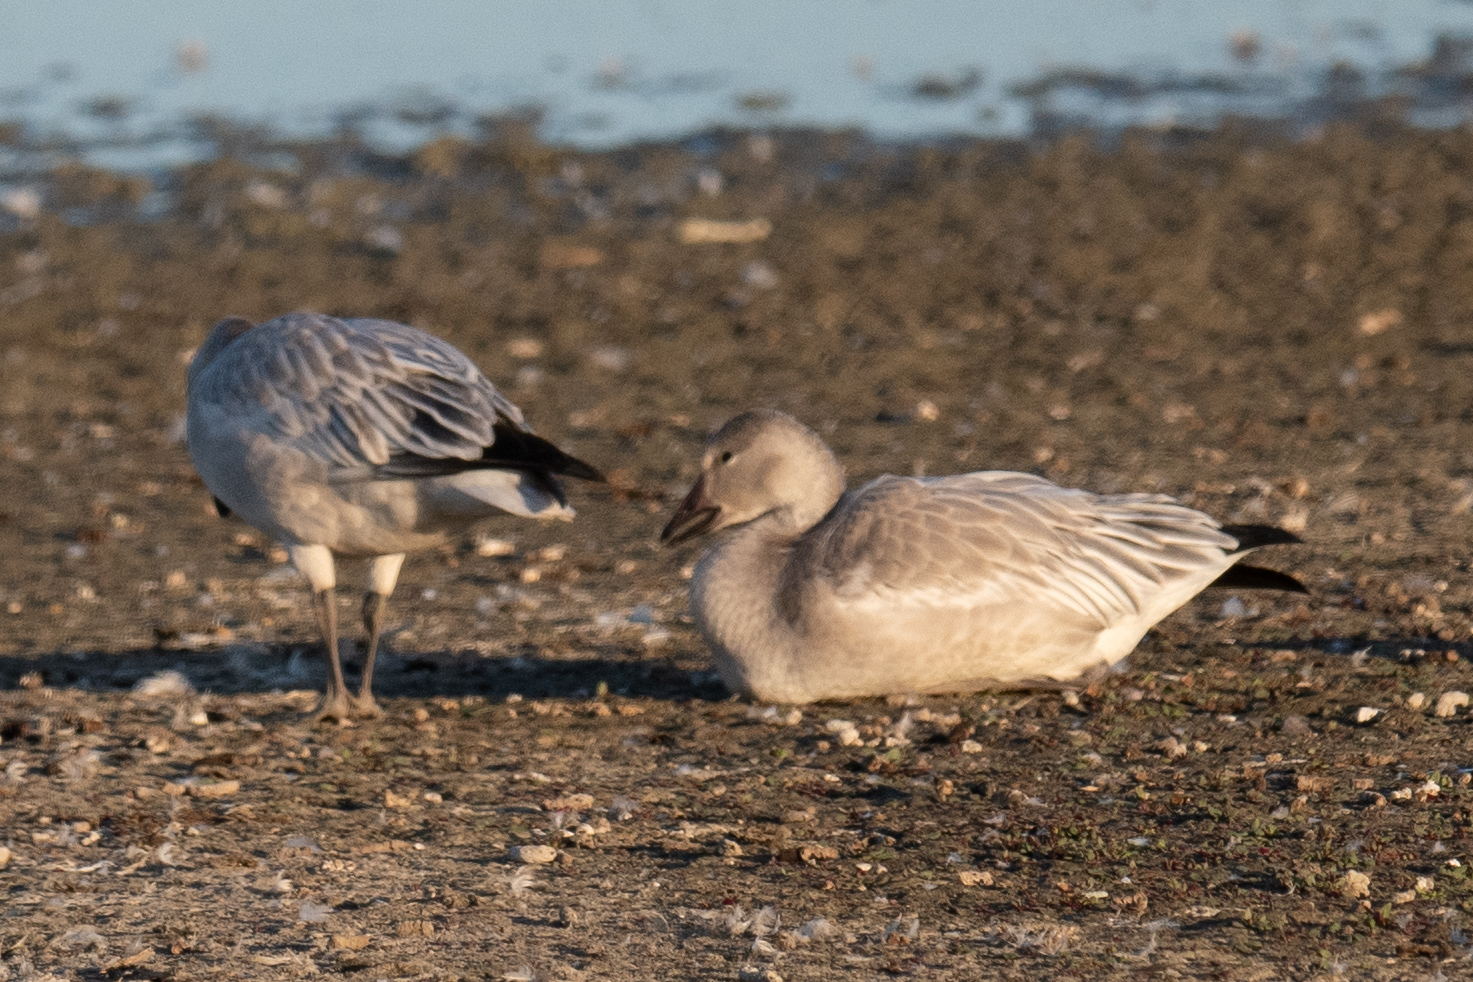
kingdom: Animalia
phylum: Chordata
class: Aves
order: Anseriformes
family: Anatidae
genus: Anser
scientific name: Anser caerulescens
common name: Snow goose
